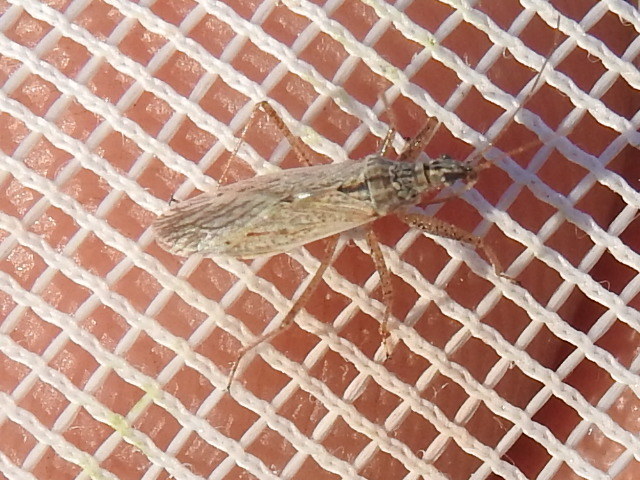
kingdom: Animalia
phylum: Arthropoda
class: Insecta
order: Hemiptera
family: Nabidae
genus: Nabis
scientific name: Nabis americoferus
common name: Common damsel bug
